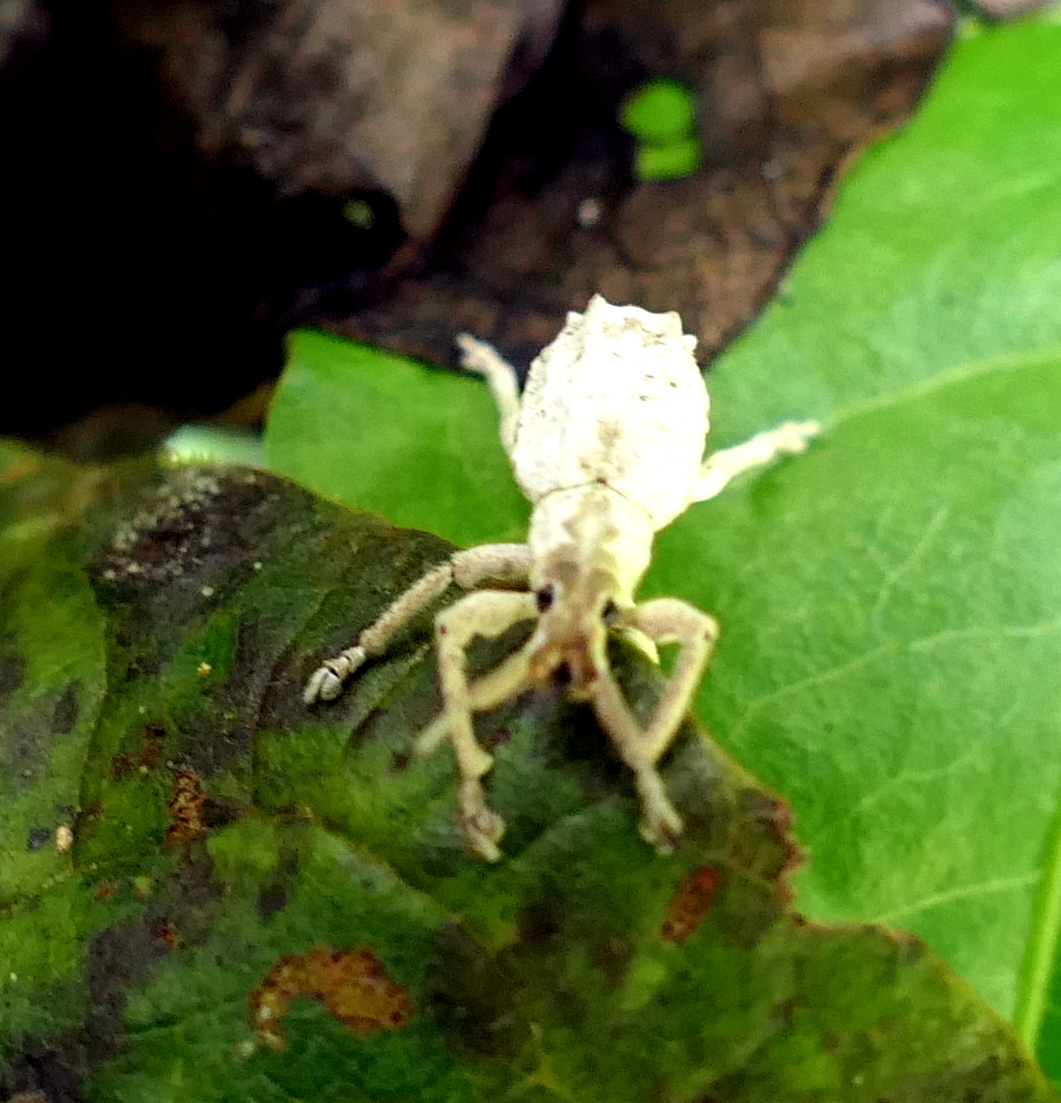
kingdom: Animalia
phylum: Arthropoda
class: Insecta
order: Coleoptera
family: Curculionidae
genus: Compsus
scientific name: Compsus niveus
